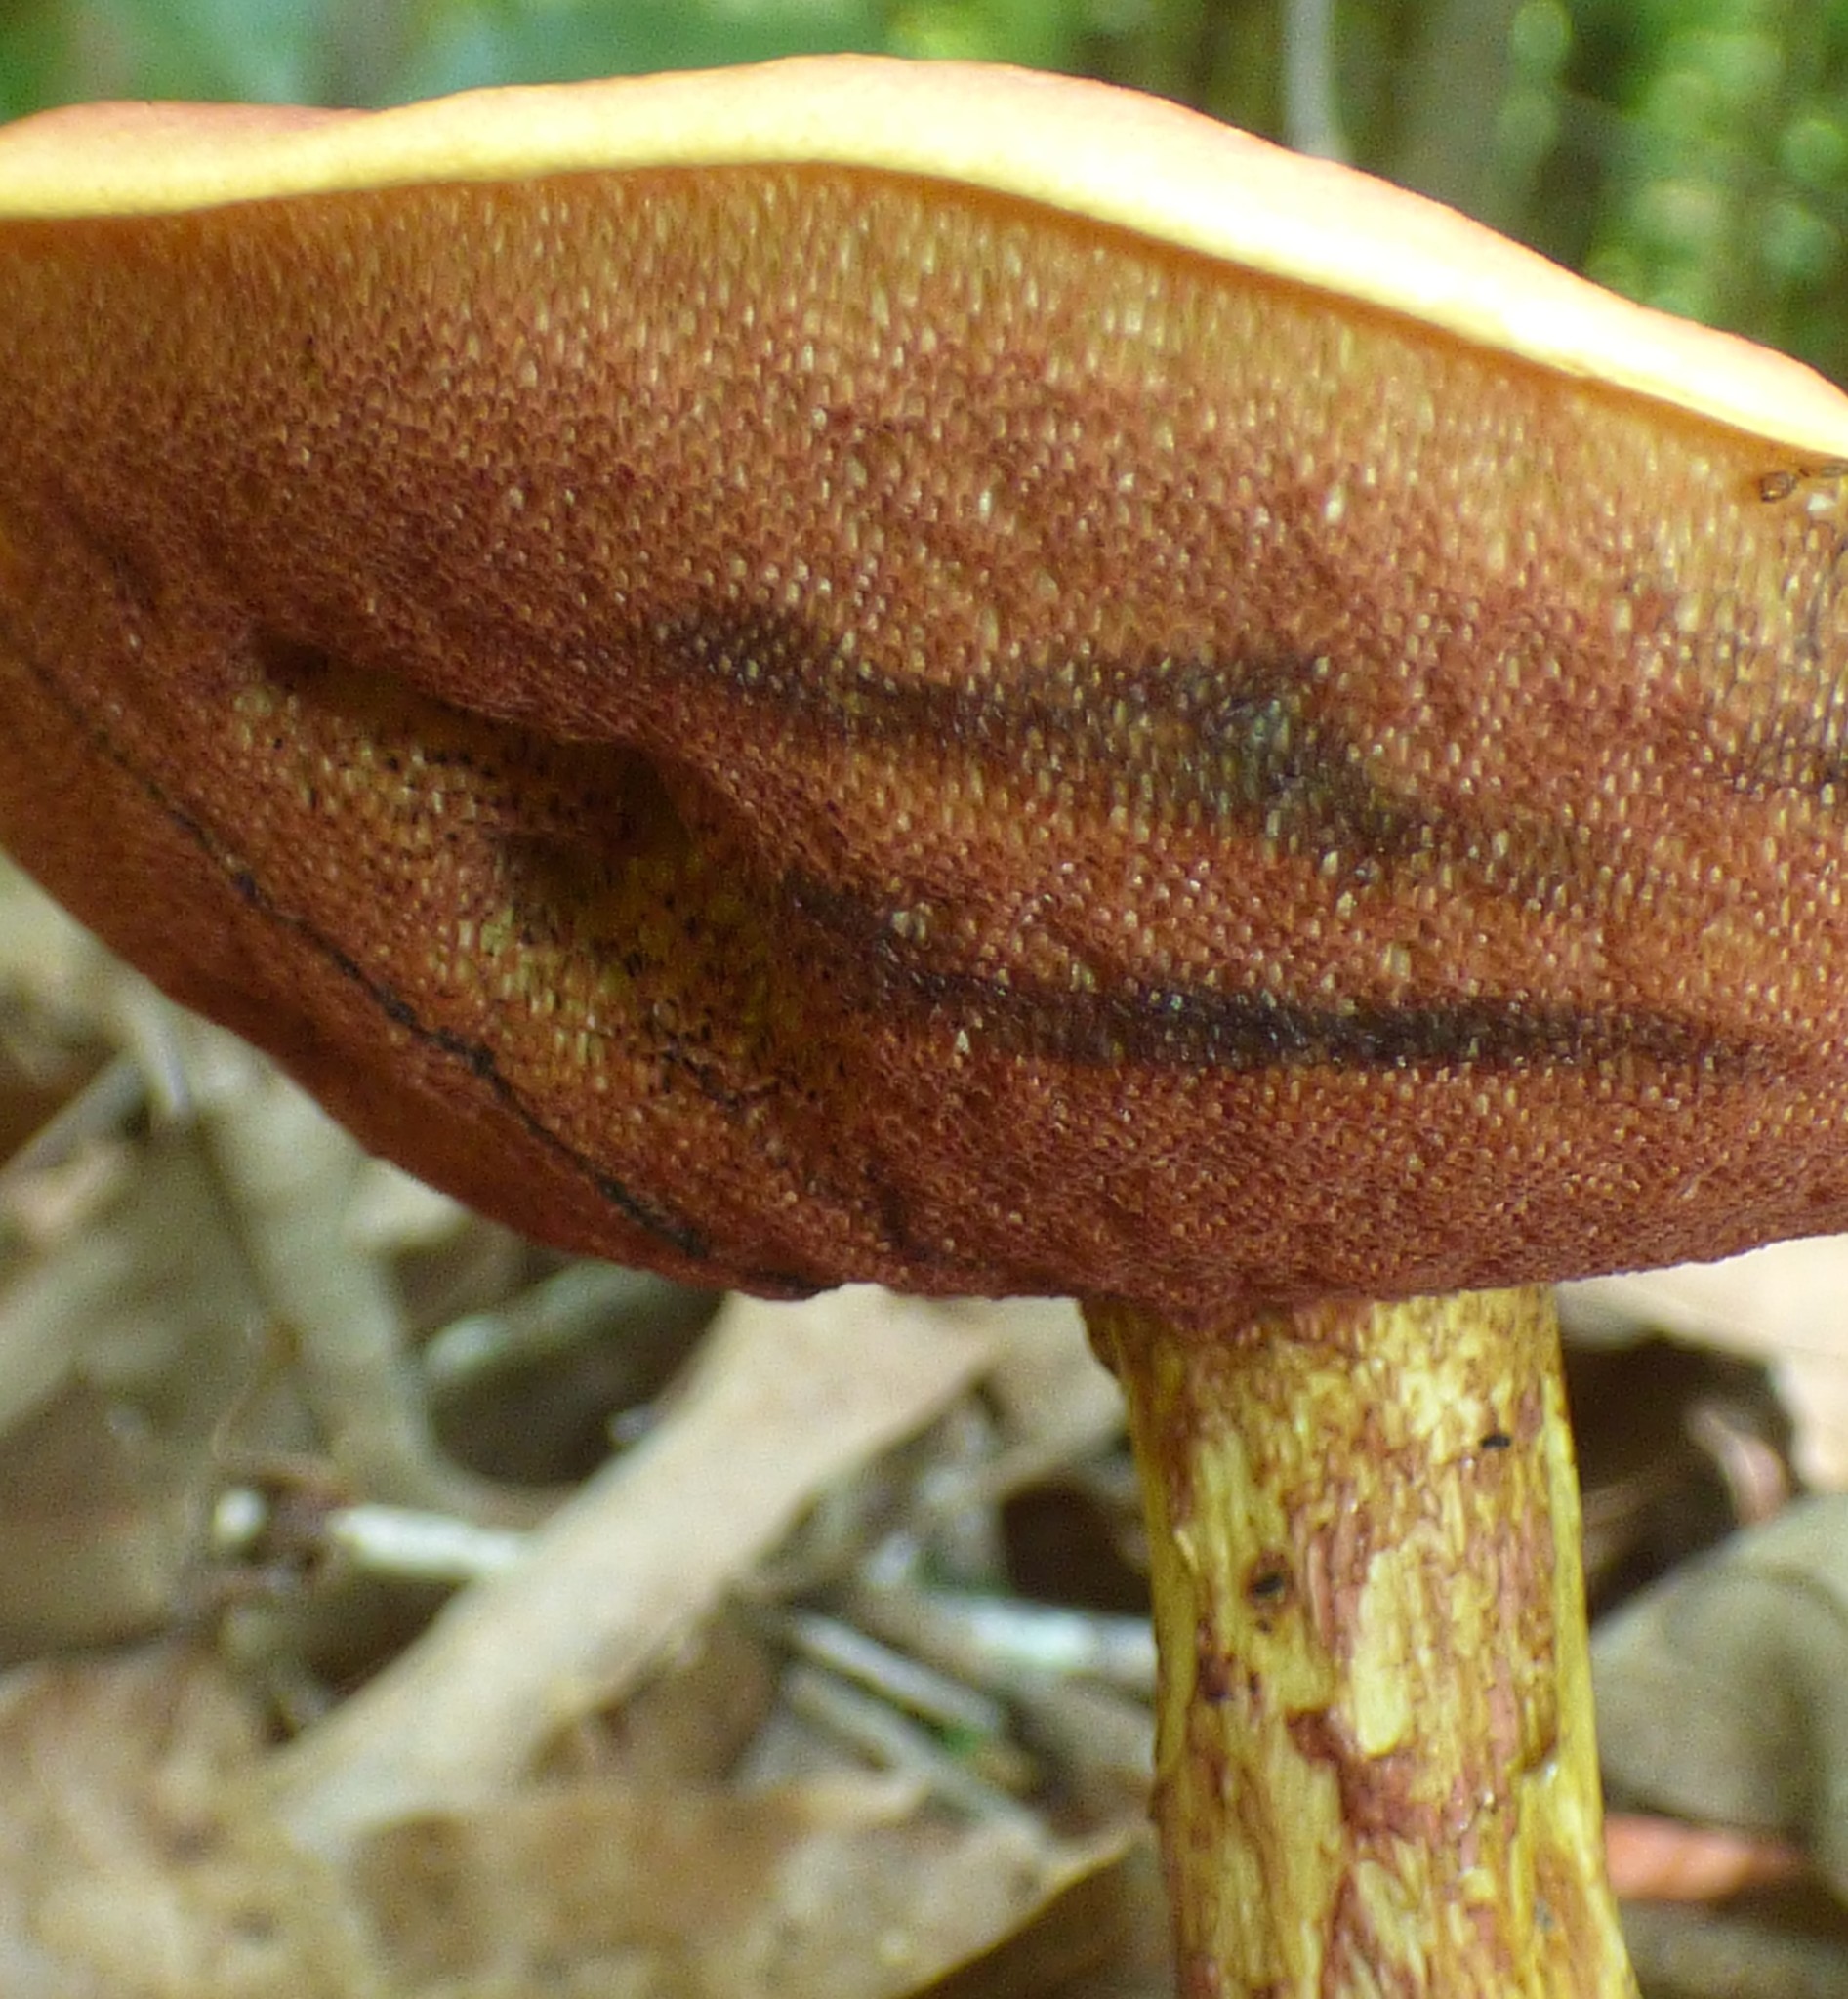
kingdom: Fungi
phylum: Basidiomycota
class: Agaricomycetes
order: Boletales
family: Boletaceae
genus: Butyriboletus
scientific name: Butyriboletus frostii
